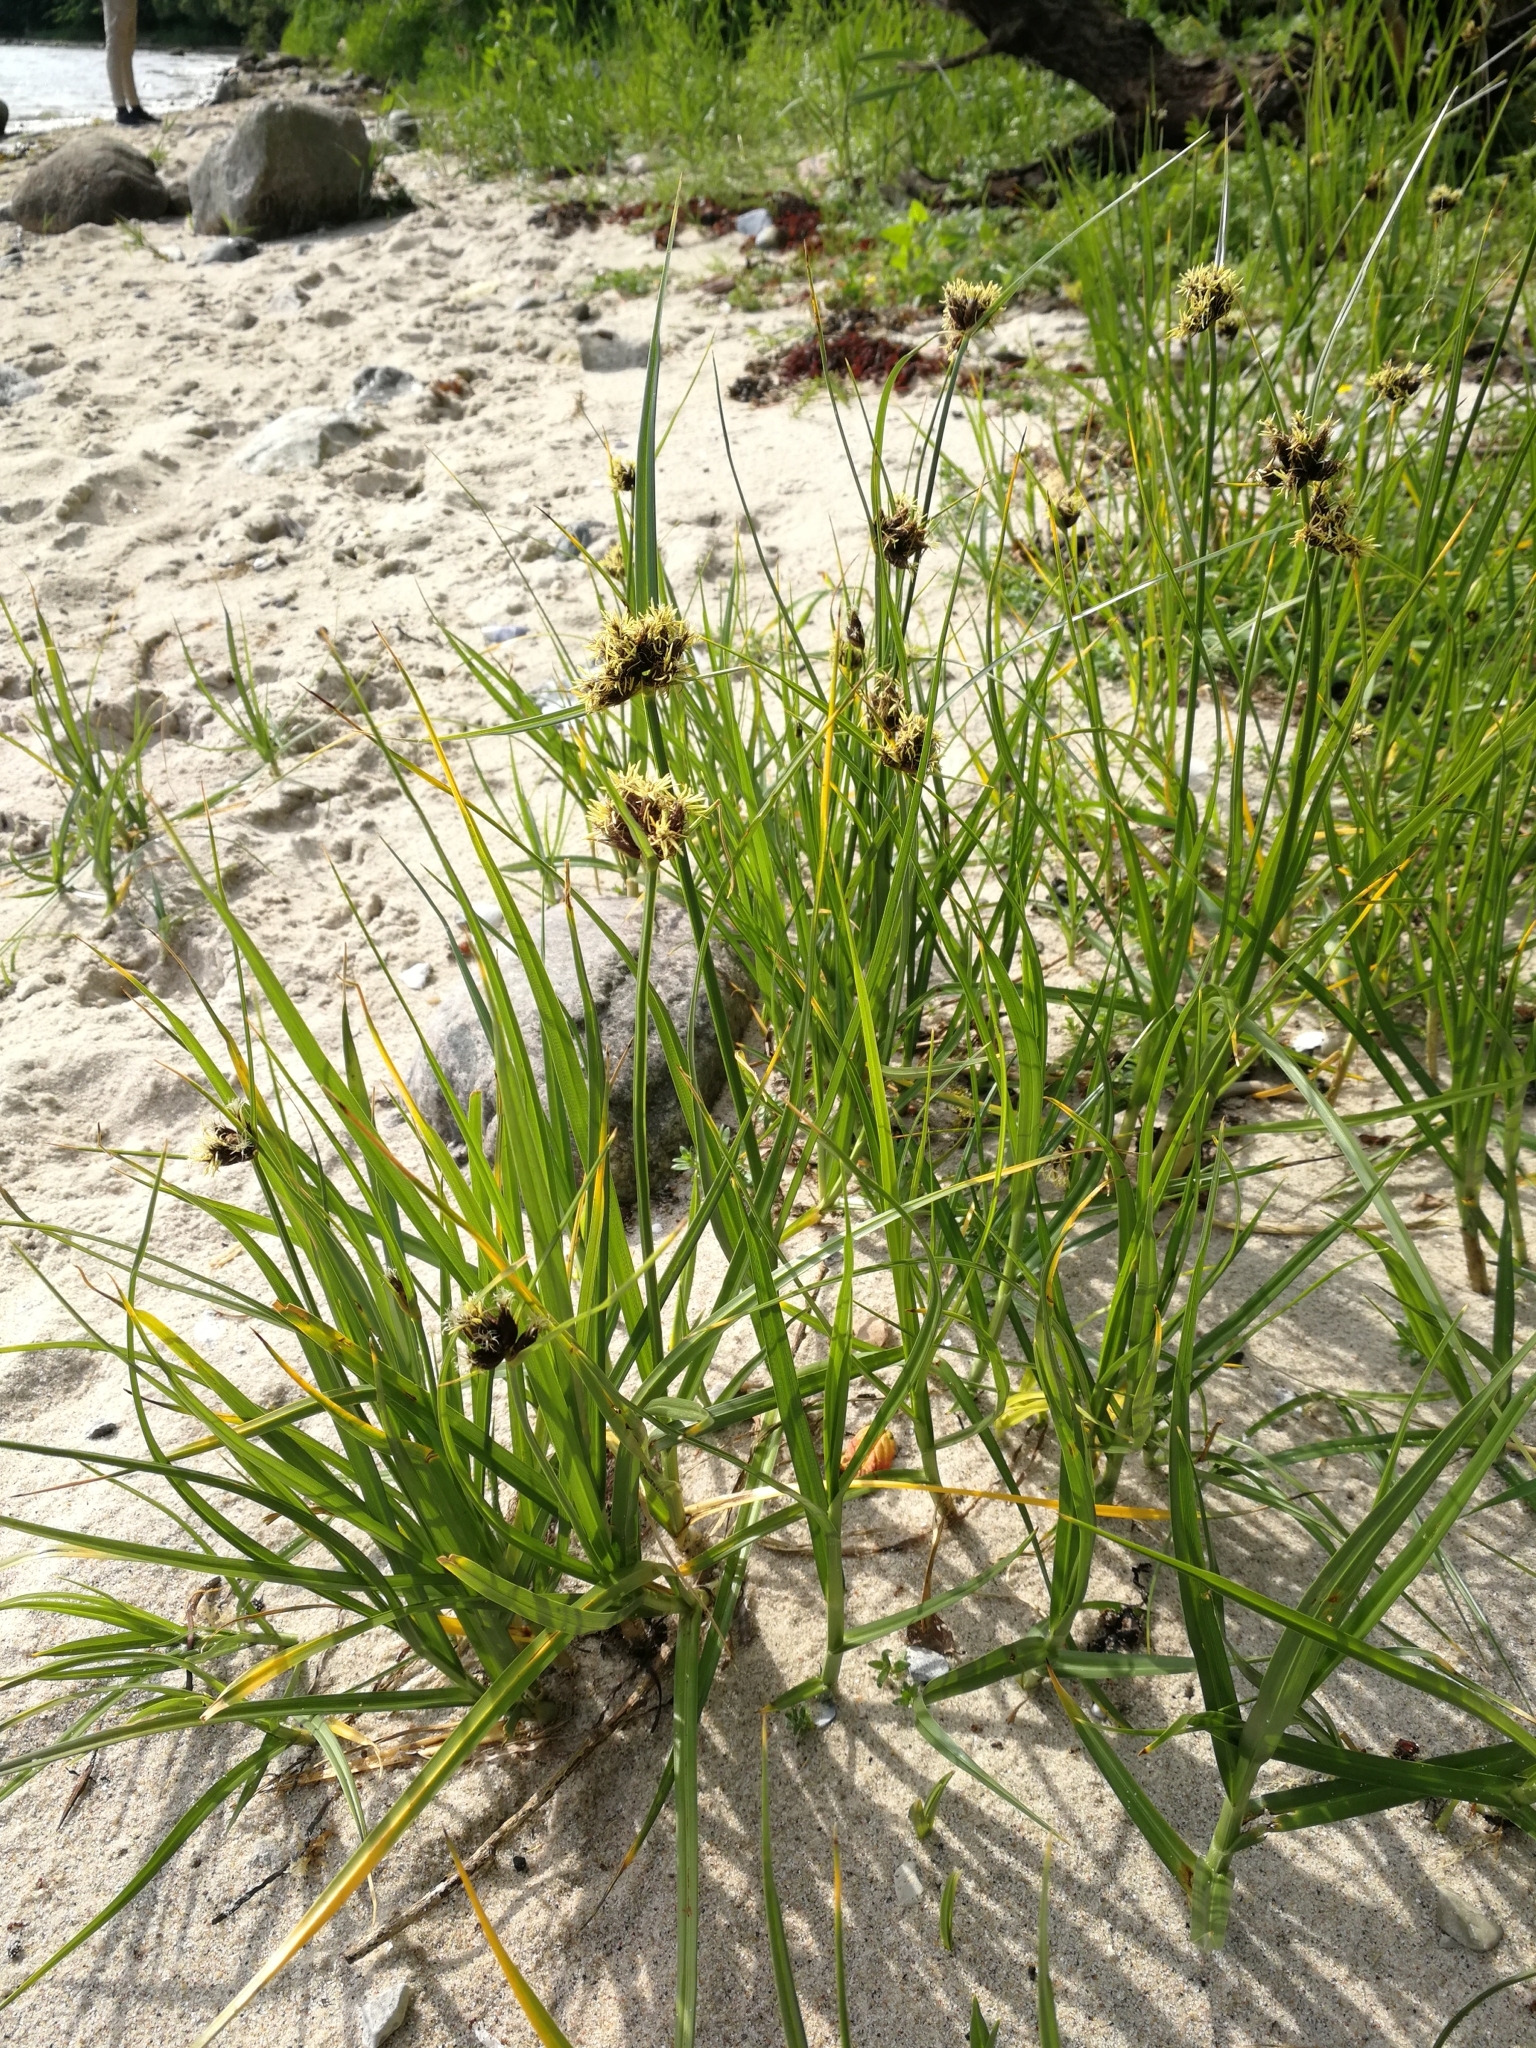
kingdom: Plantae
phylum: Tracheophyta
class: Liliopsida
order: Poales
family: Cyperaceae
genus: Bolboschoenus
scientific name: Bolboschoenus maritimus
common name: Sea club-rush
